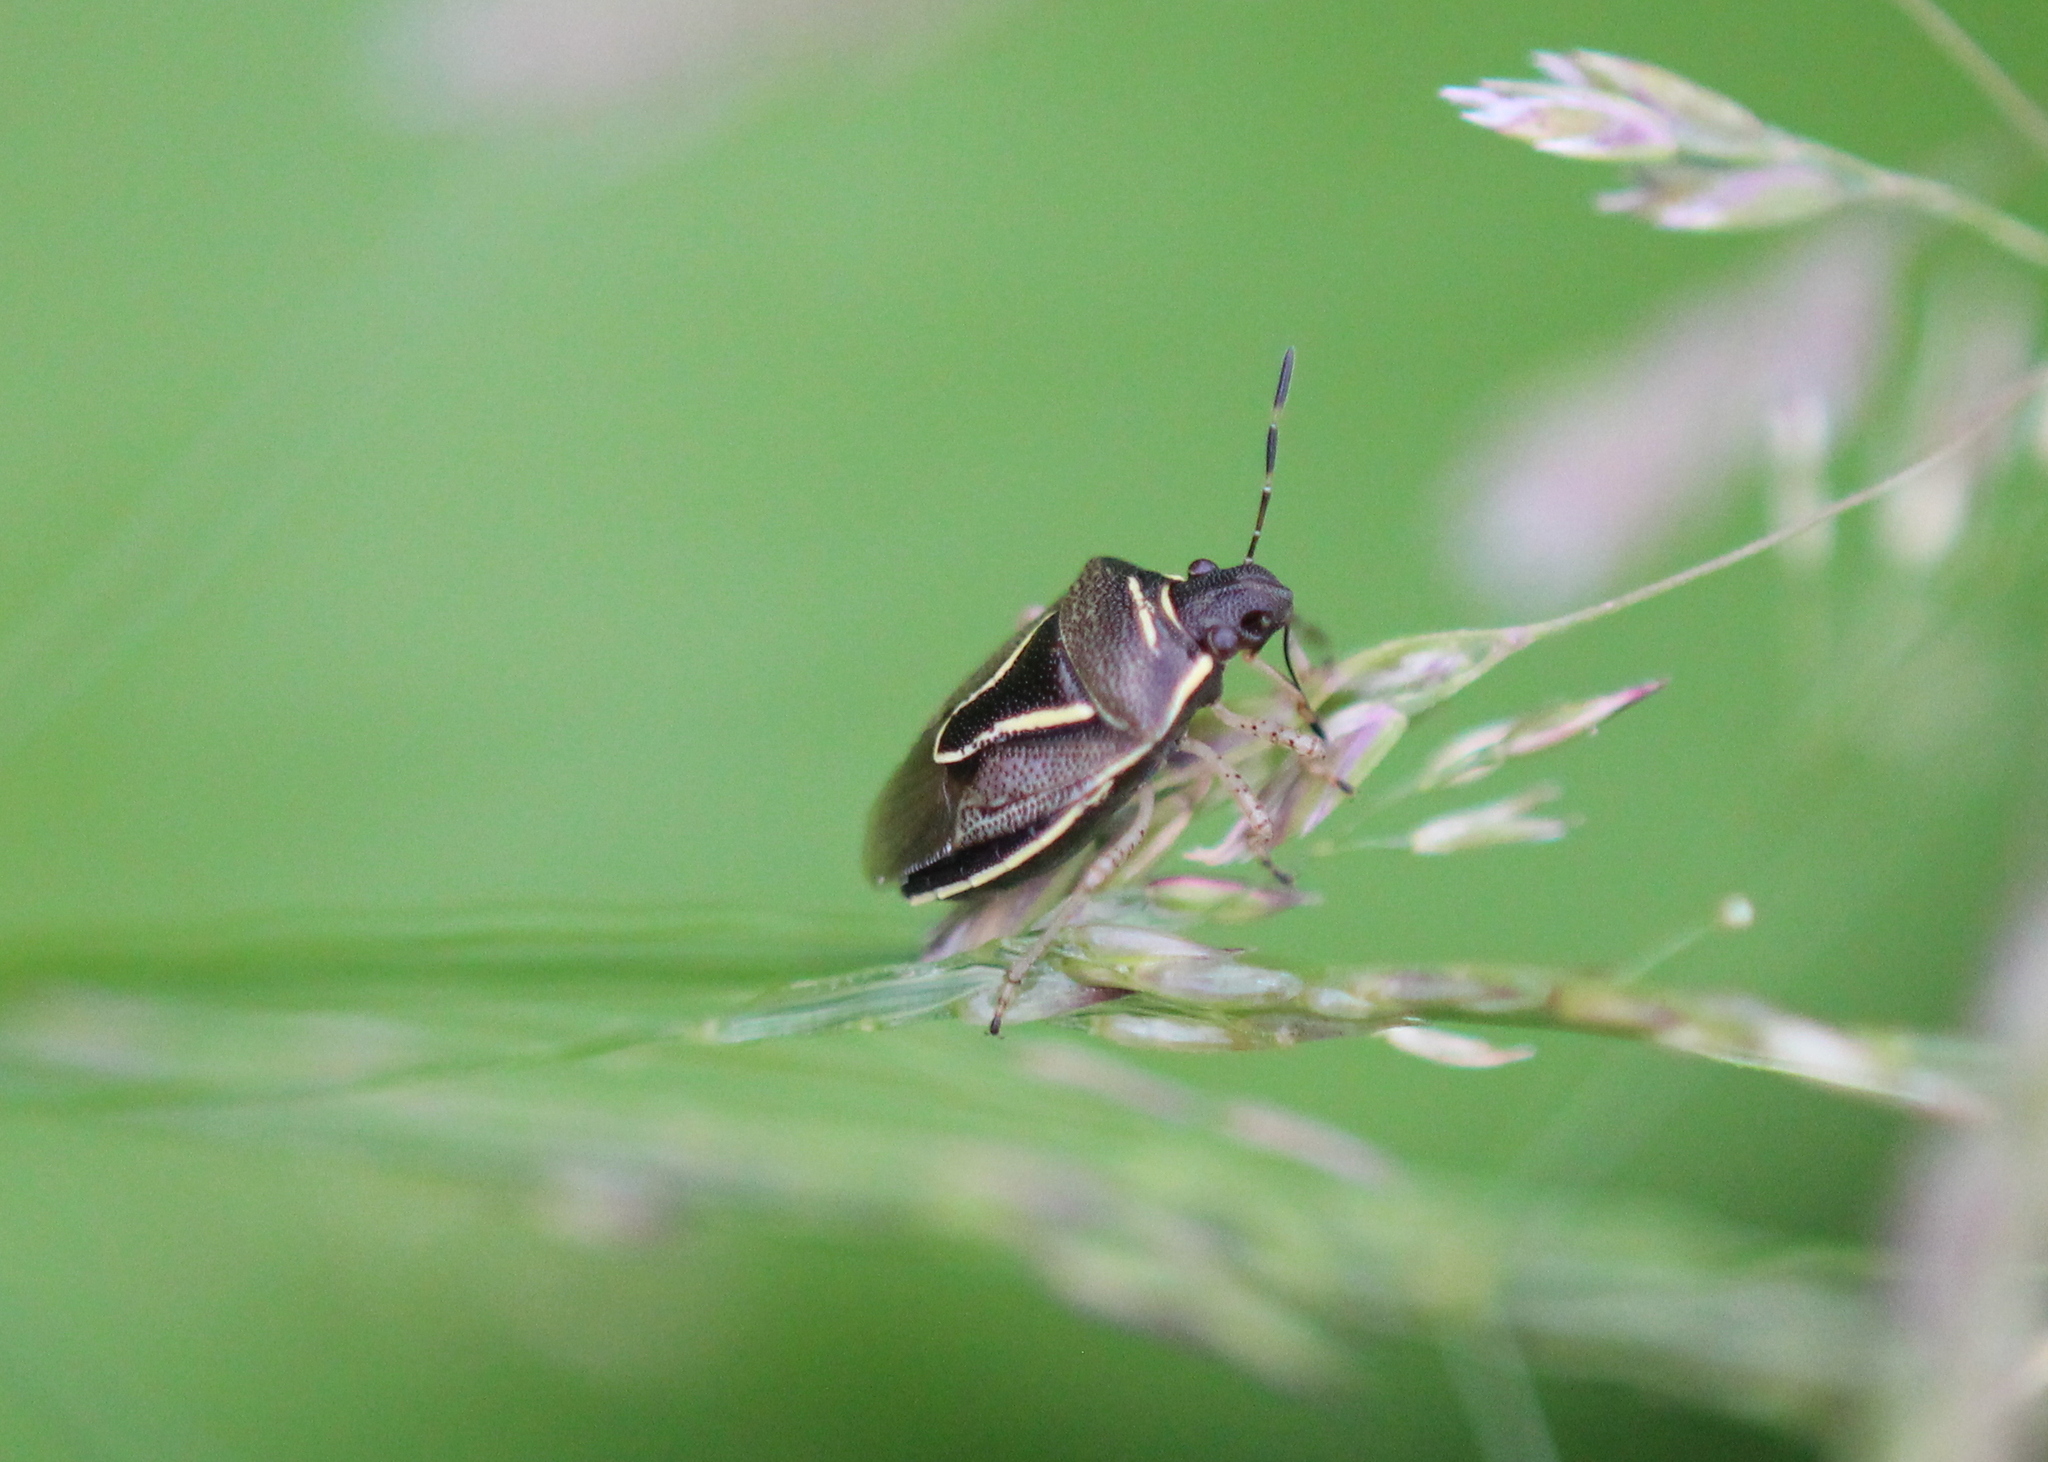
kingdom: Animalia
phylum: Arthropoda
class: Insecta
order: Hemiptera
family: Pentatomidae
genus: Mormidea
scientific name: Mormidea lugens
